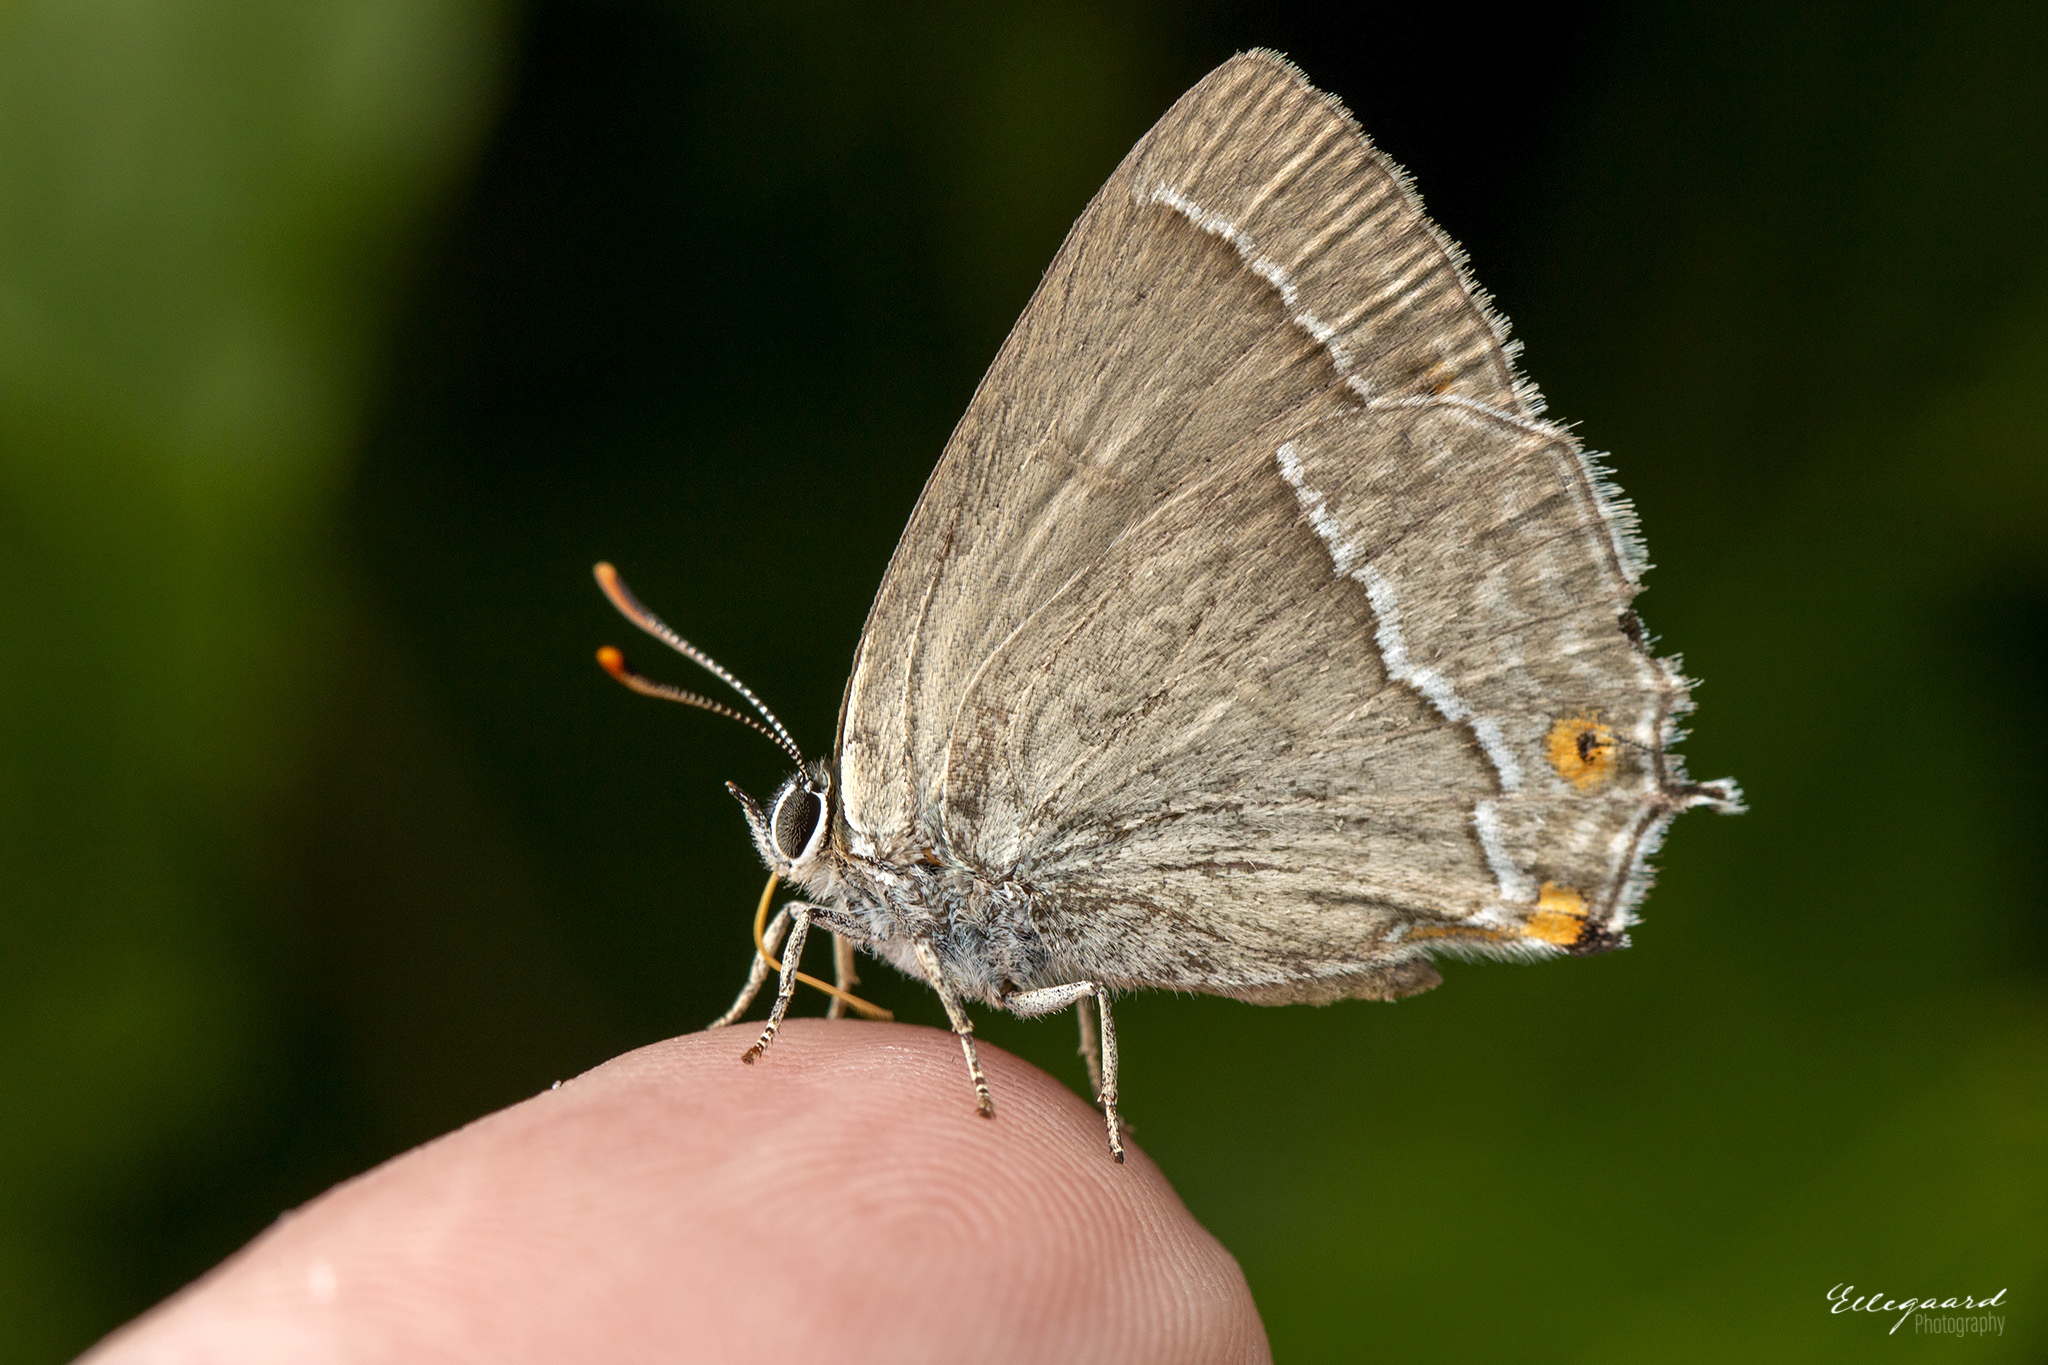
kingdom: Animalia
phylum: Arthropoda
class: Insecta
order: Lepidoptera
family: Lycaenidae
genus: Quercusia
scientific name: Quercusia quercus
